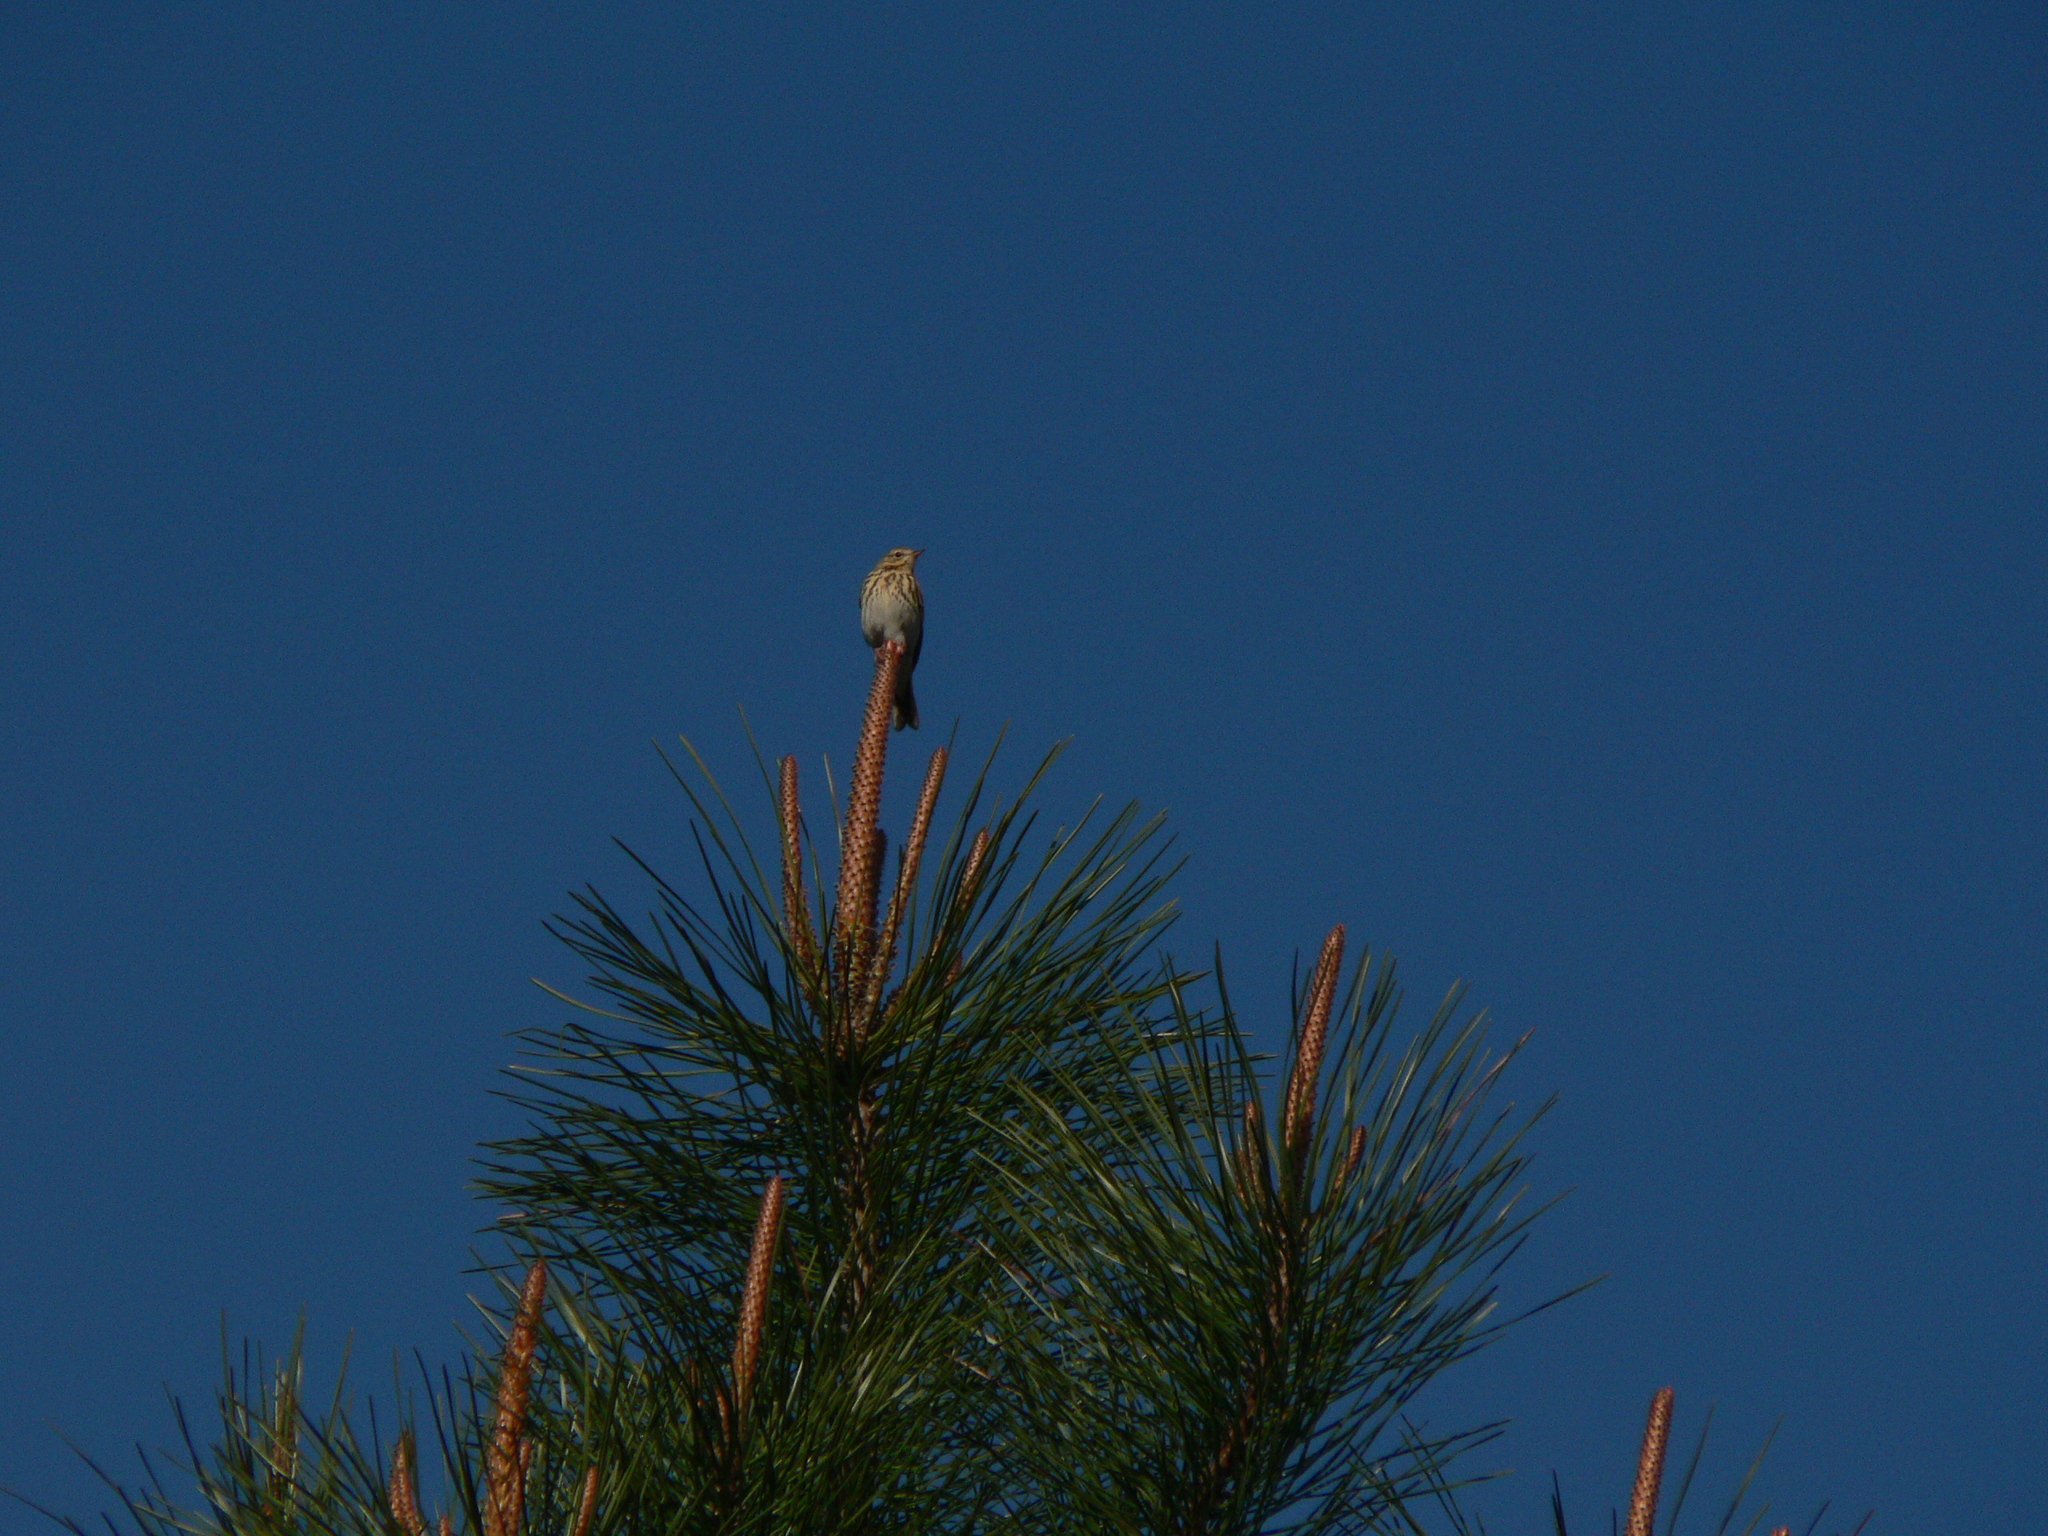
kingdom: Animalia
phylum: Chordata
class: Aves
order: Passeriformes
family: Motacillidae
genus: Anthus
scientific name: Anthus trivialis
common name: Tree pipit
